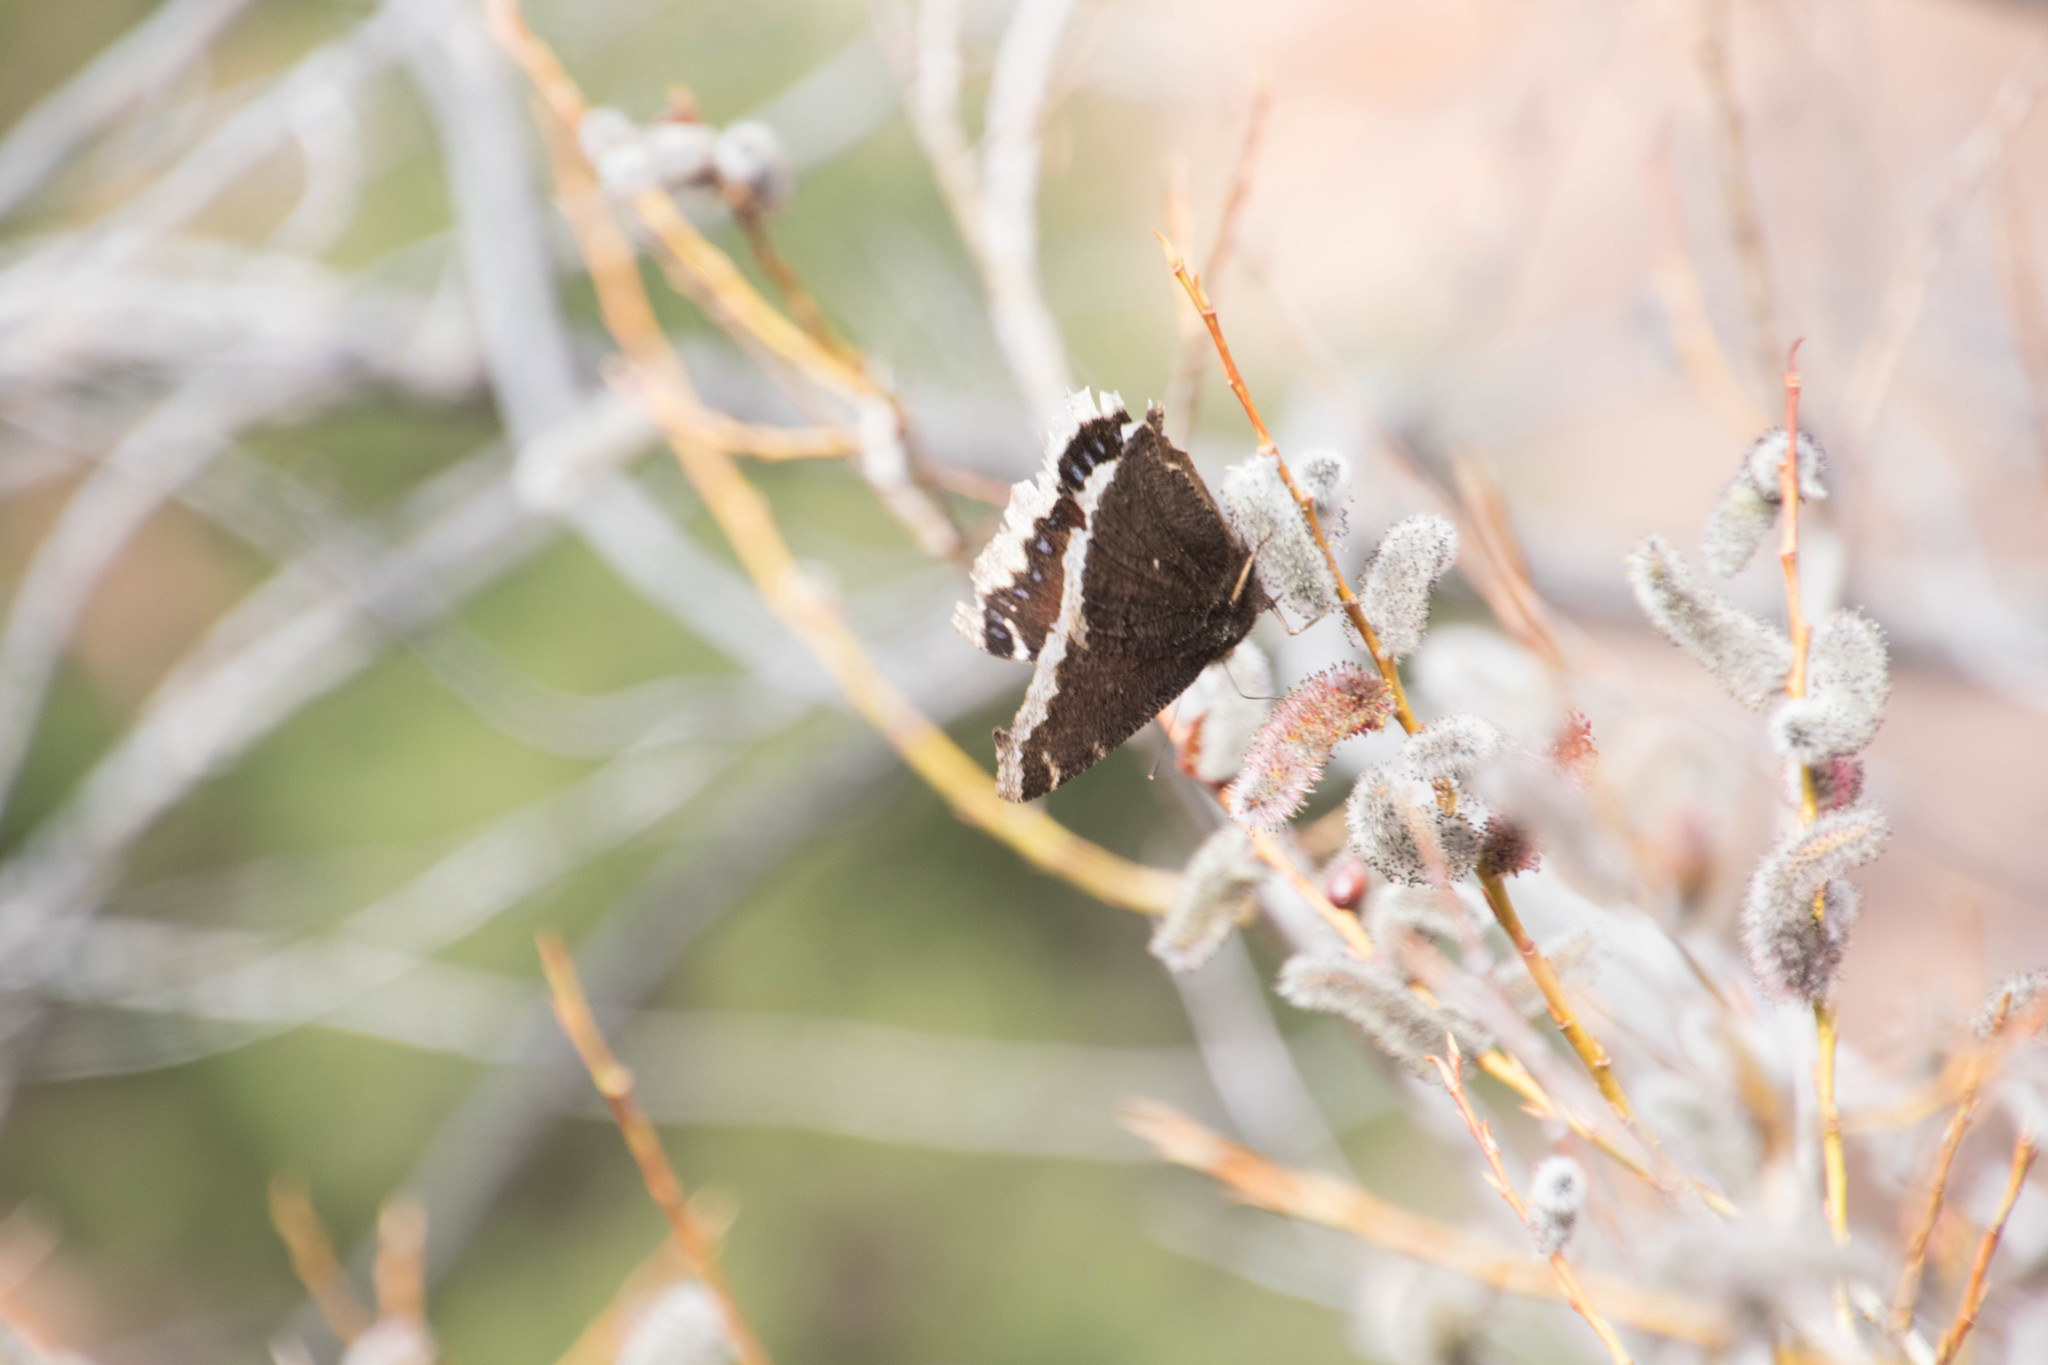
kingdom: Animalia
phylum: Arthropoda
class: Insecta
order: Lepidoptera
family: Nymphalidae
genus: Nymphalis
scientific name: Nymphalis antiopa
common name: Camberwell beauty
